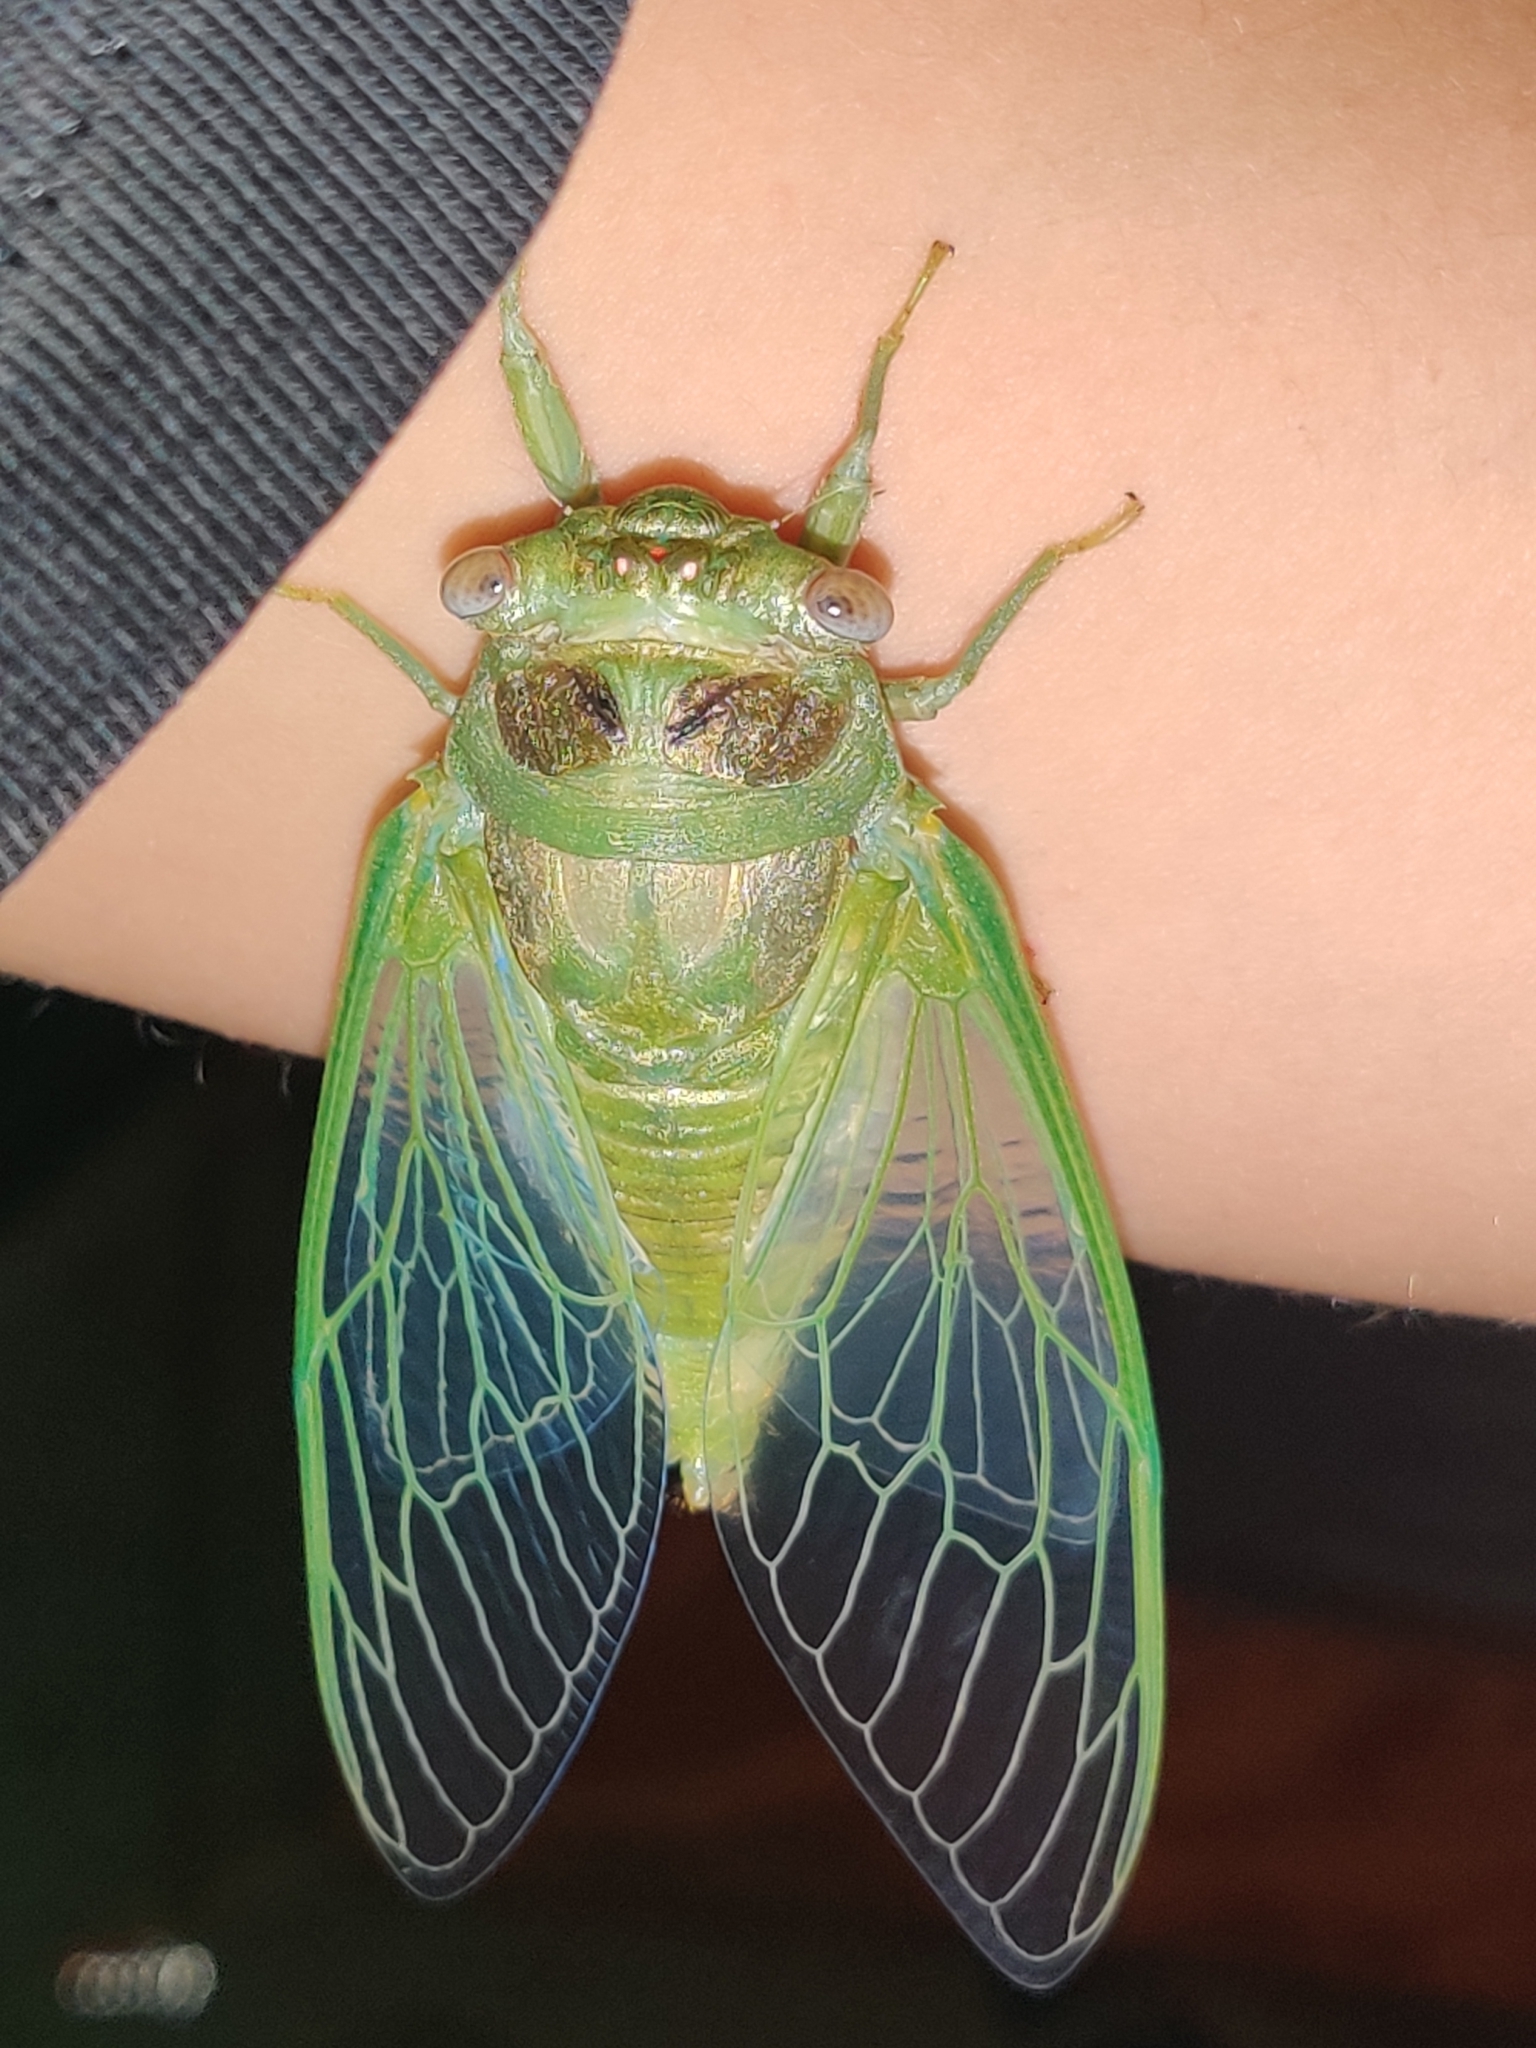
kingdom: Animalia
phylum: Arthropoda
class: Insecta
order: Hemiptera
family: Cicadidae
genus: Diceroprocta
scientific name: Diceroprocta grossa
